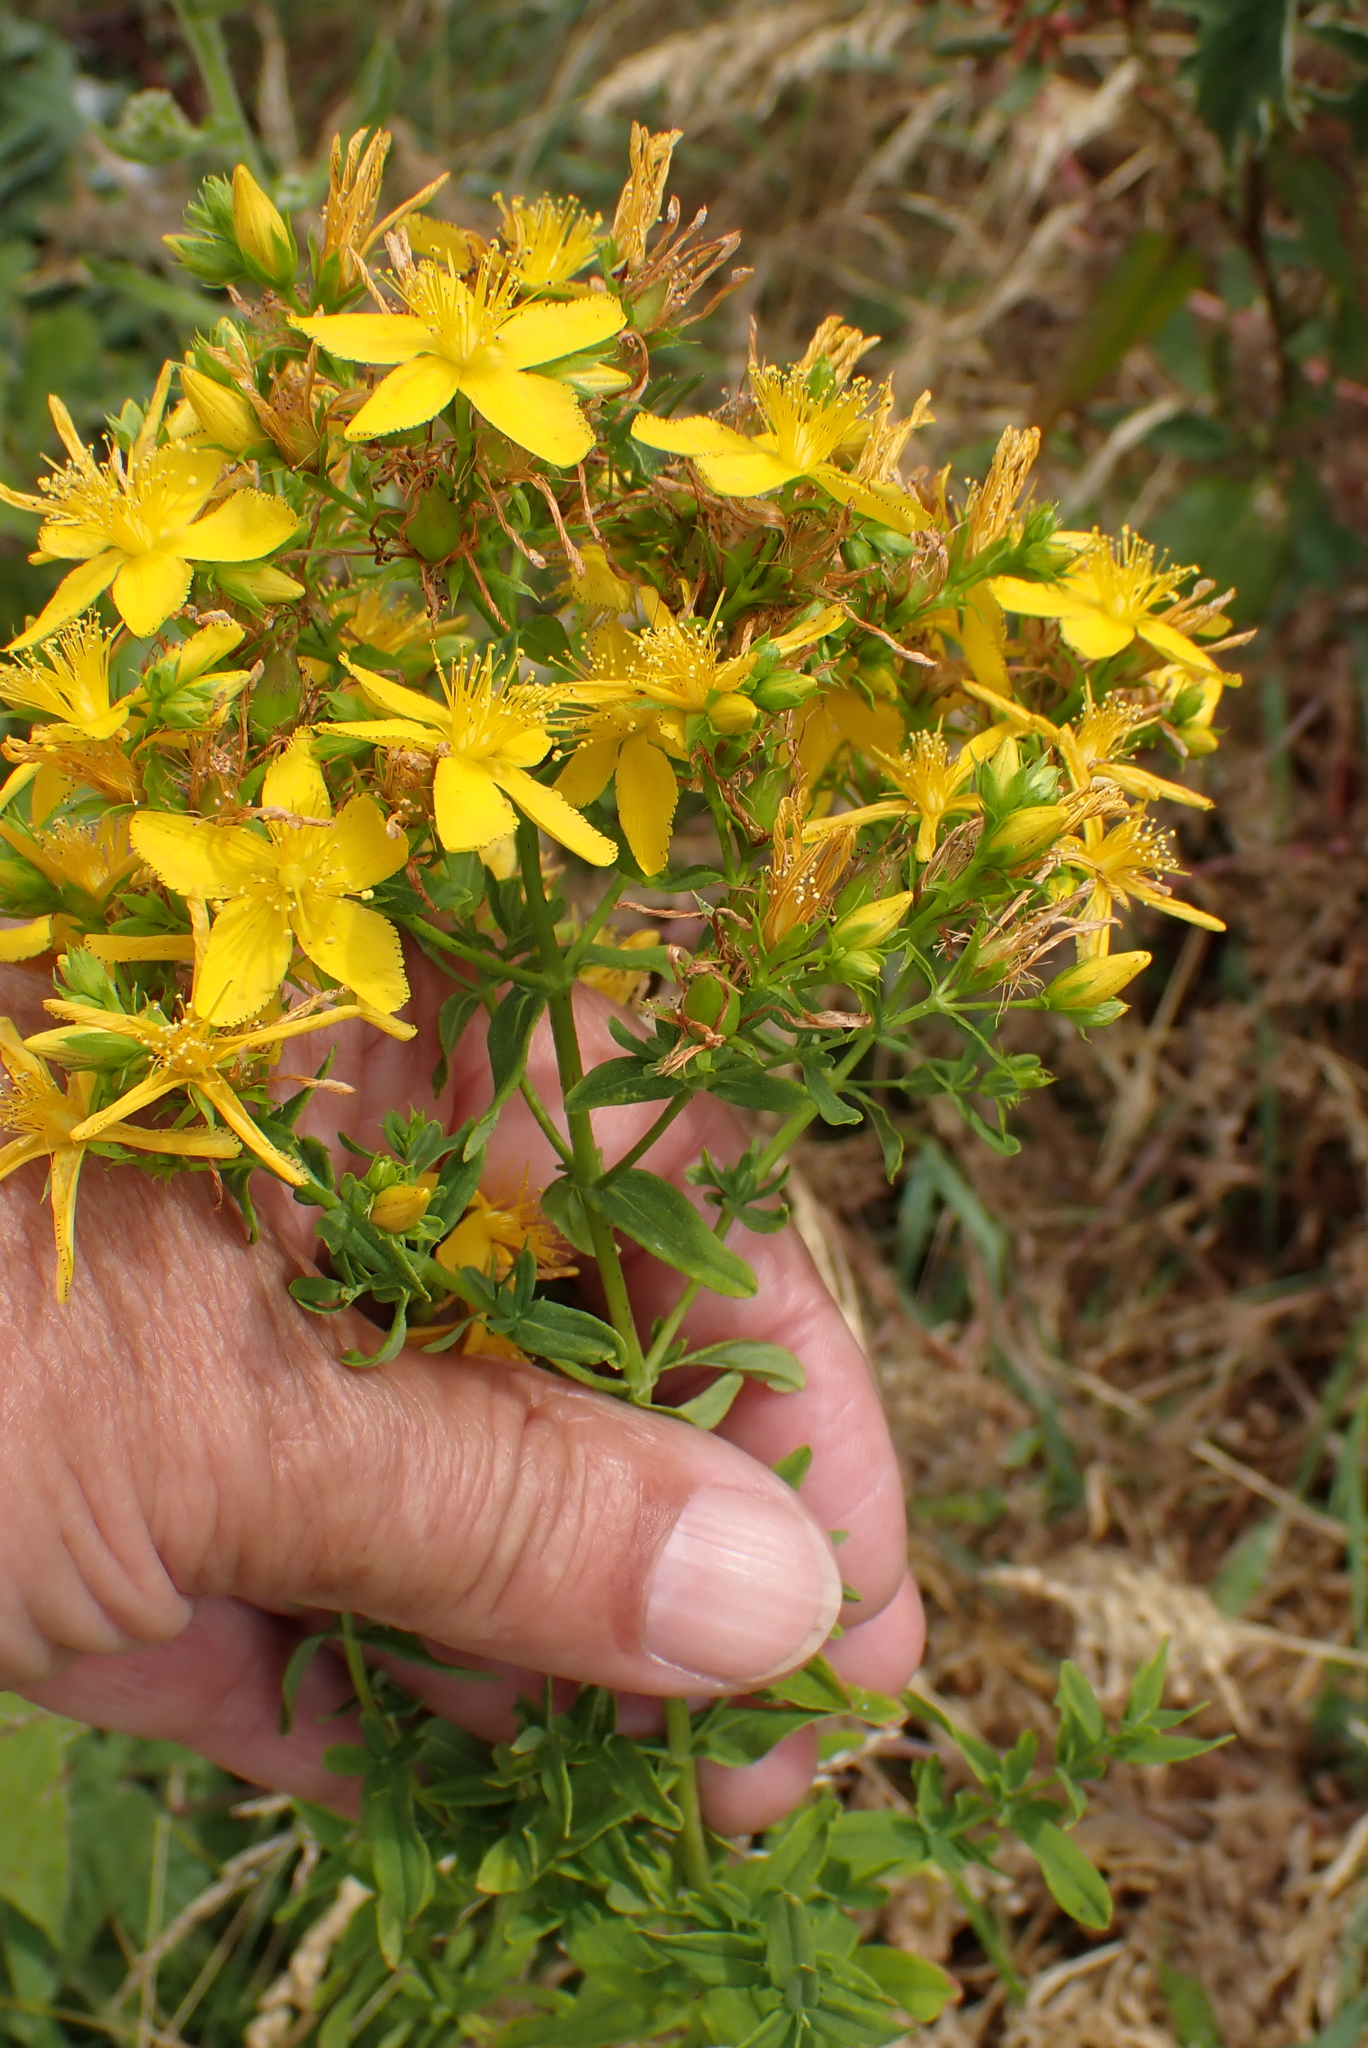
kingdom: Plantae
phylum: Tracheophyta
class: Magnoliopsida
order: Malpighiales
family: Hypericaceae
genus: Hypericum
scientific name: Hypericum perforatum
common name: Common st. johnswort
